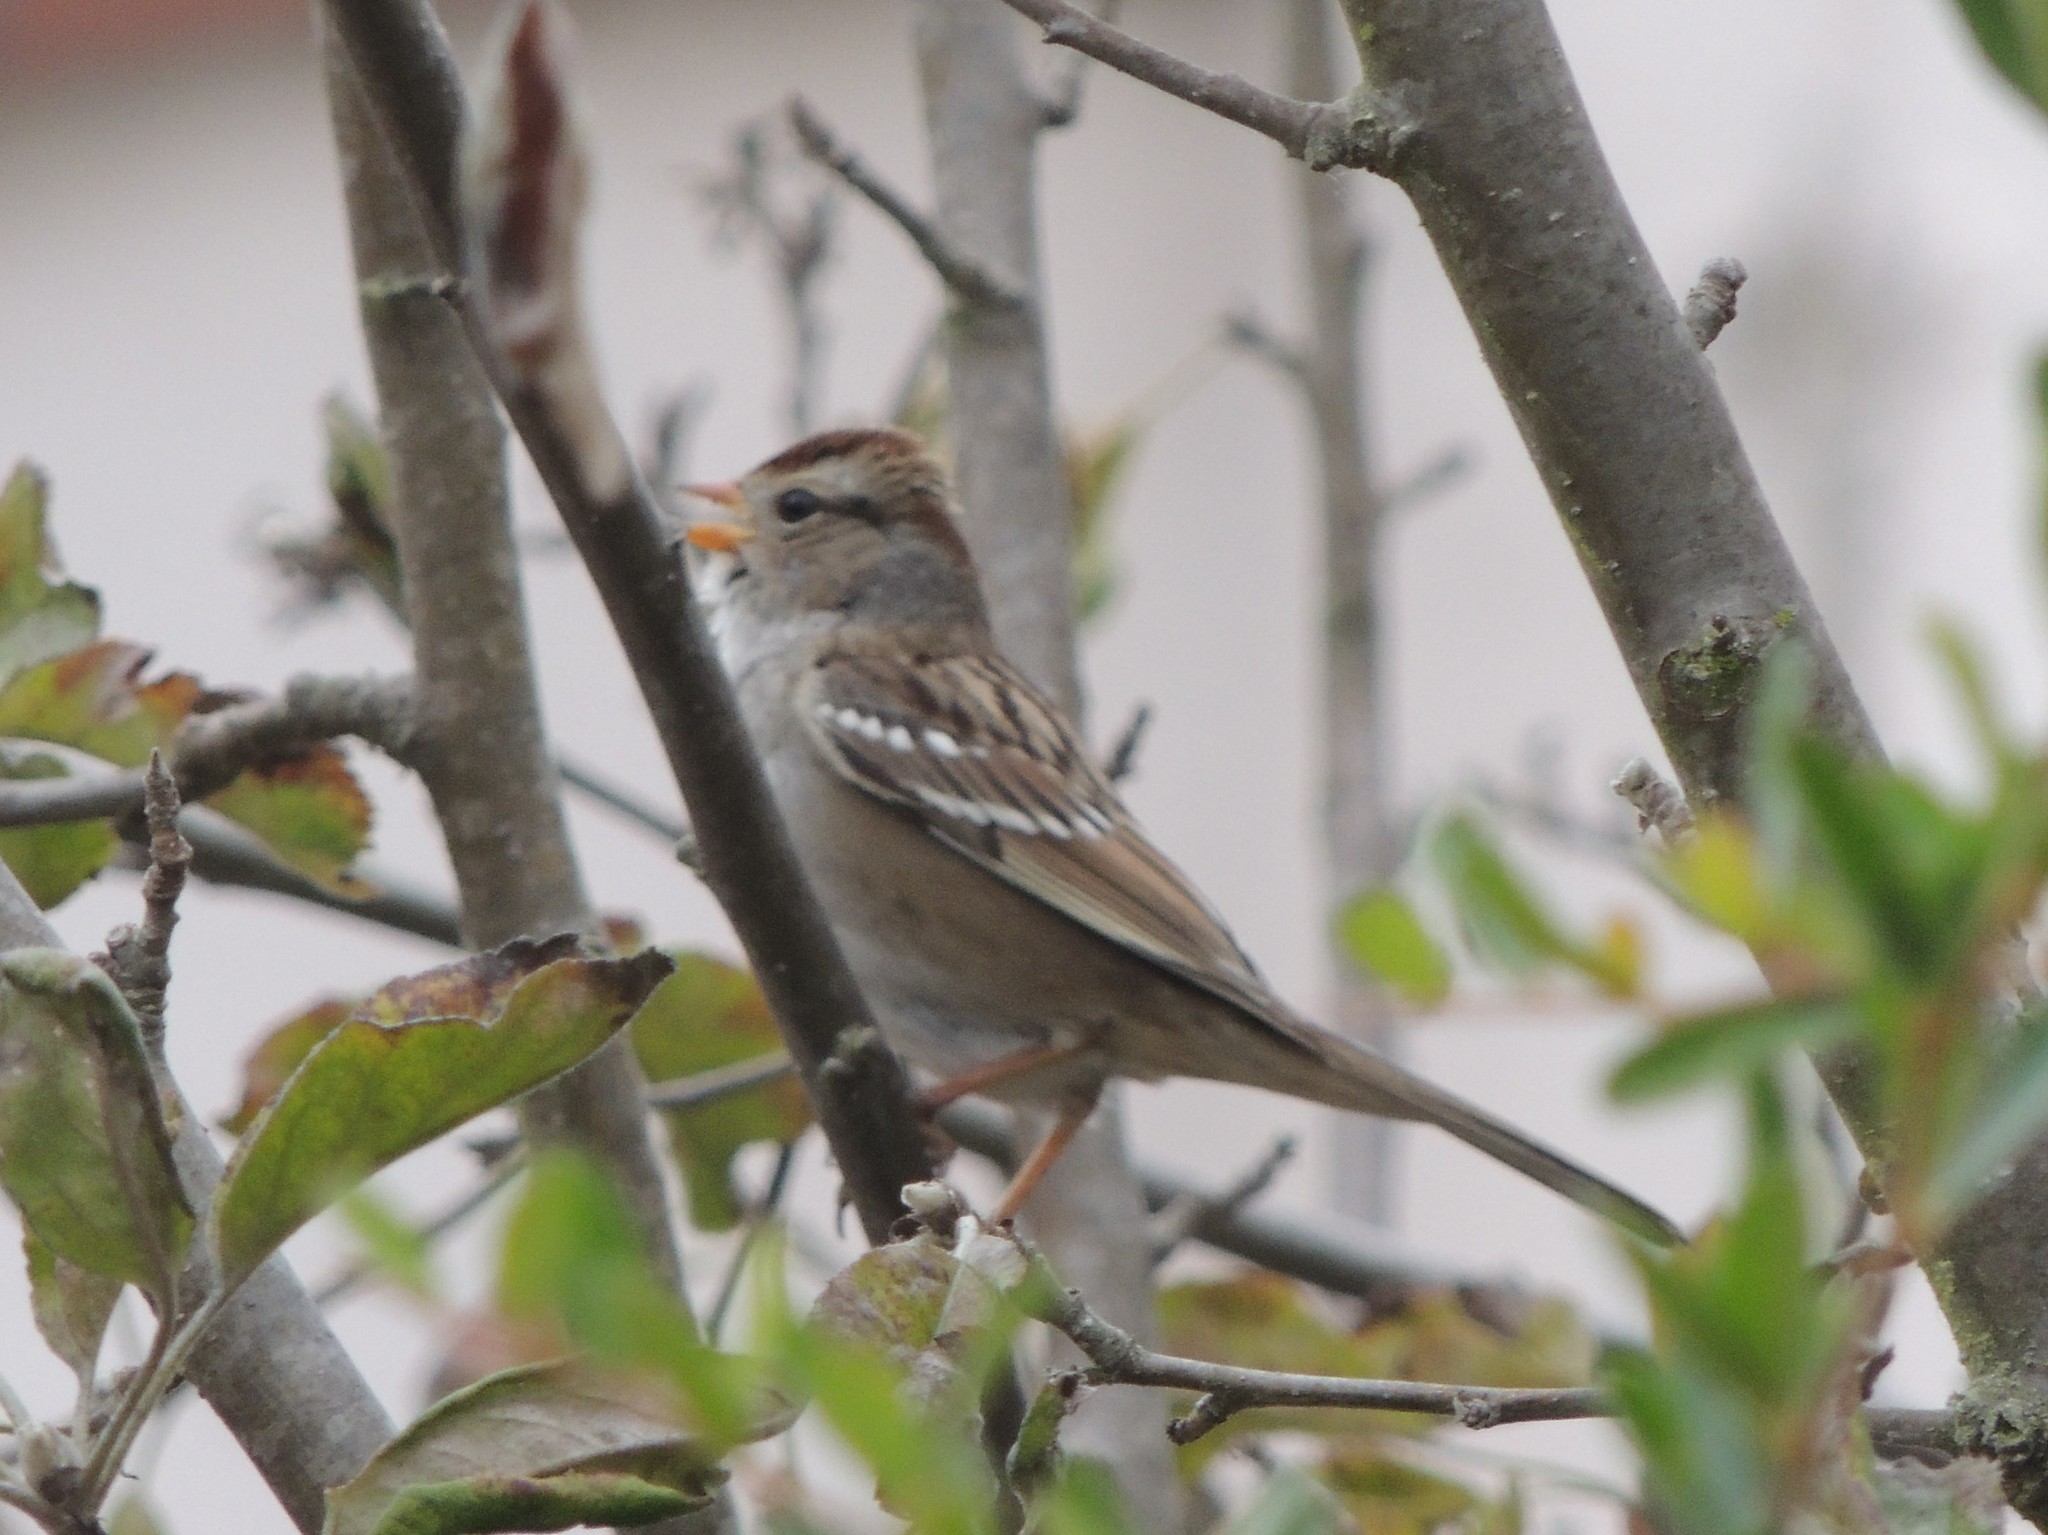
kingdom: Animalia
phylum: Chordata
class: Aves
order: Passeriformes
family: Passerellidae
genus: Zonotrichia
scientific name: Zonotrichia leucophrys
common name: White-crowned sparrow
